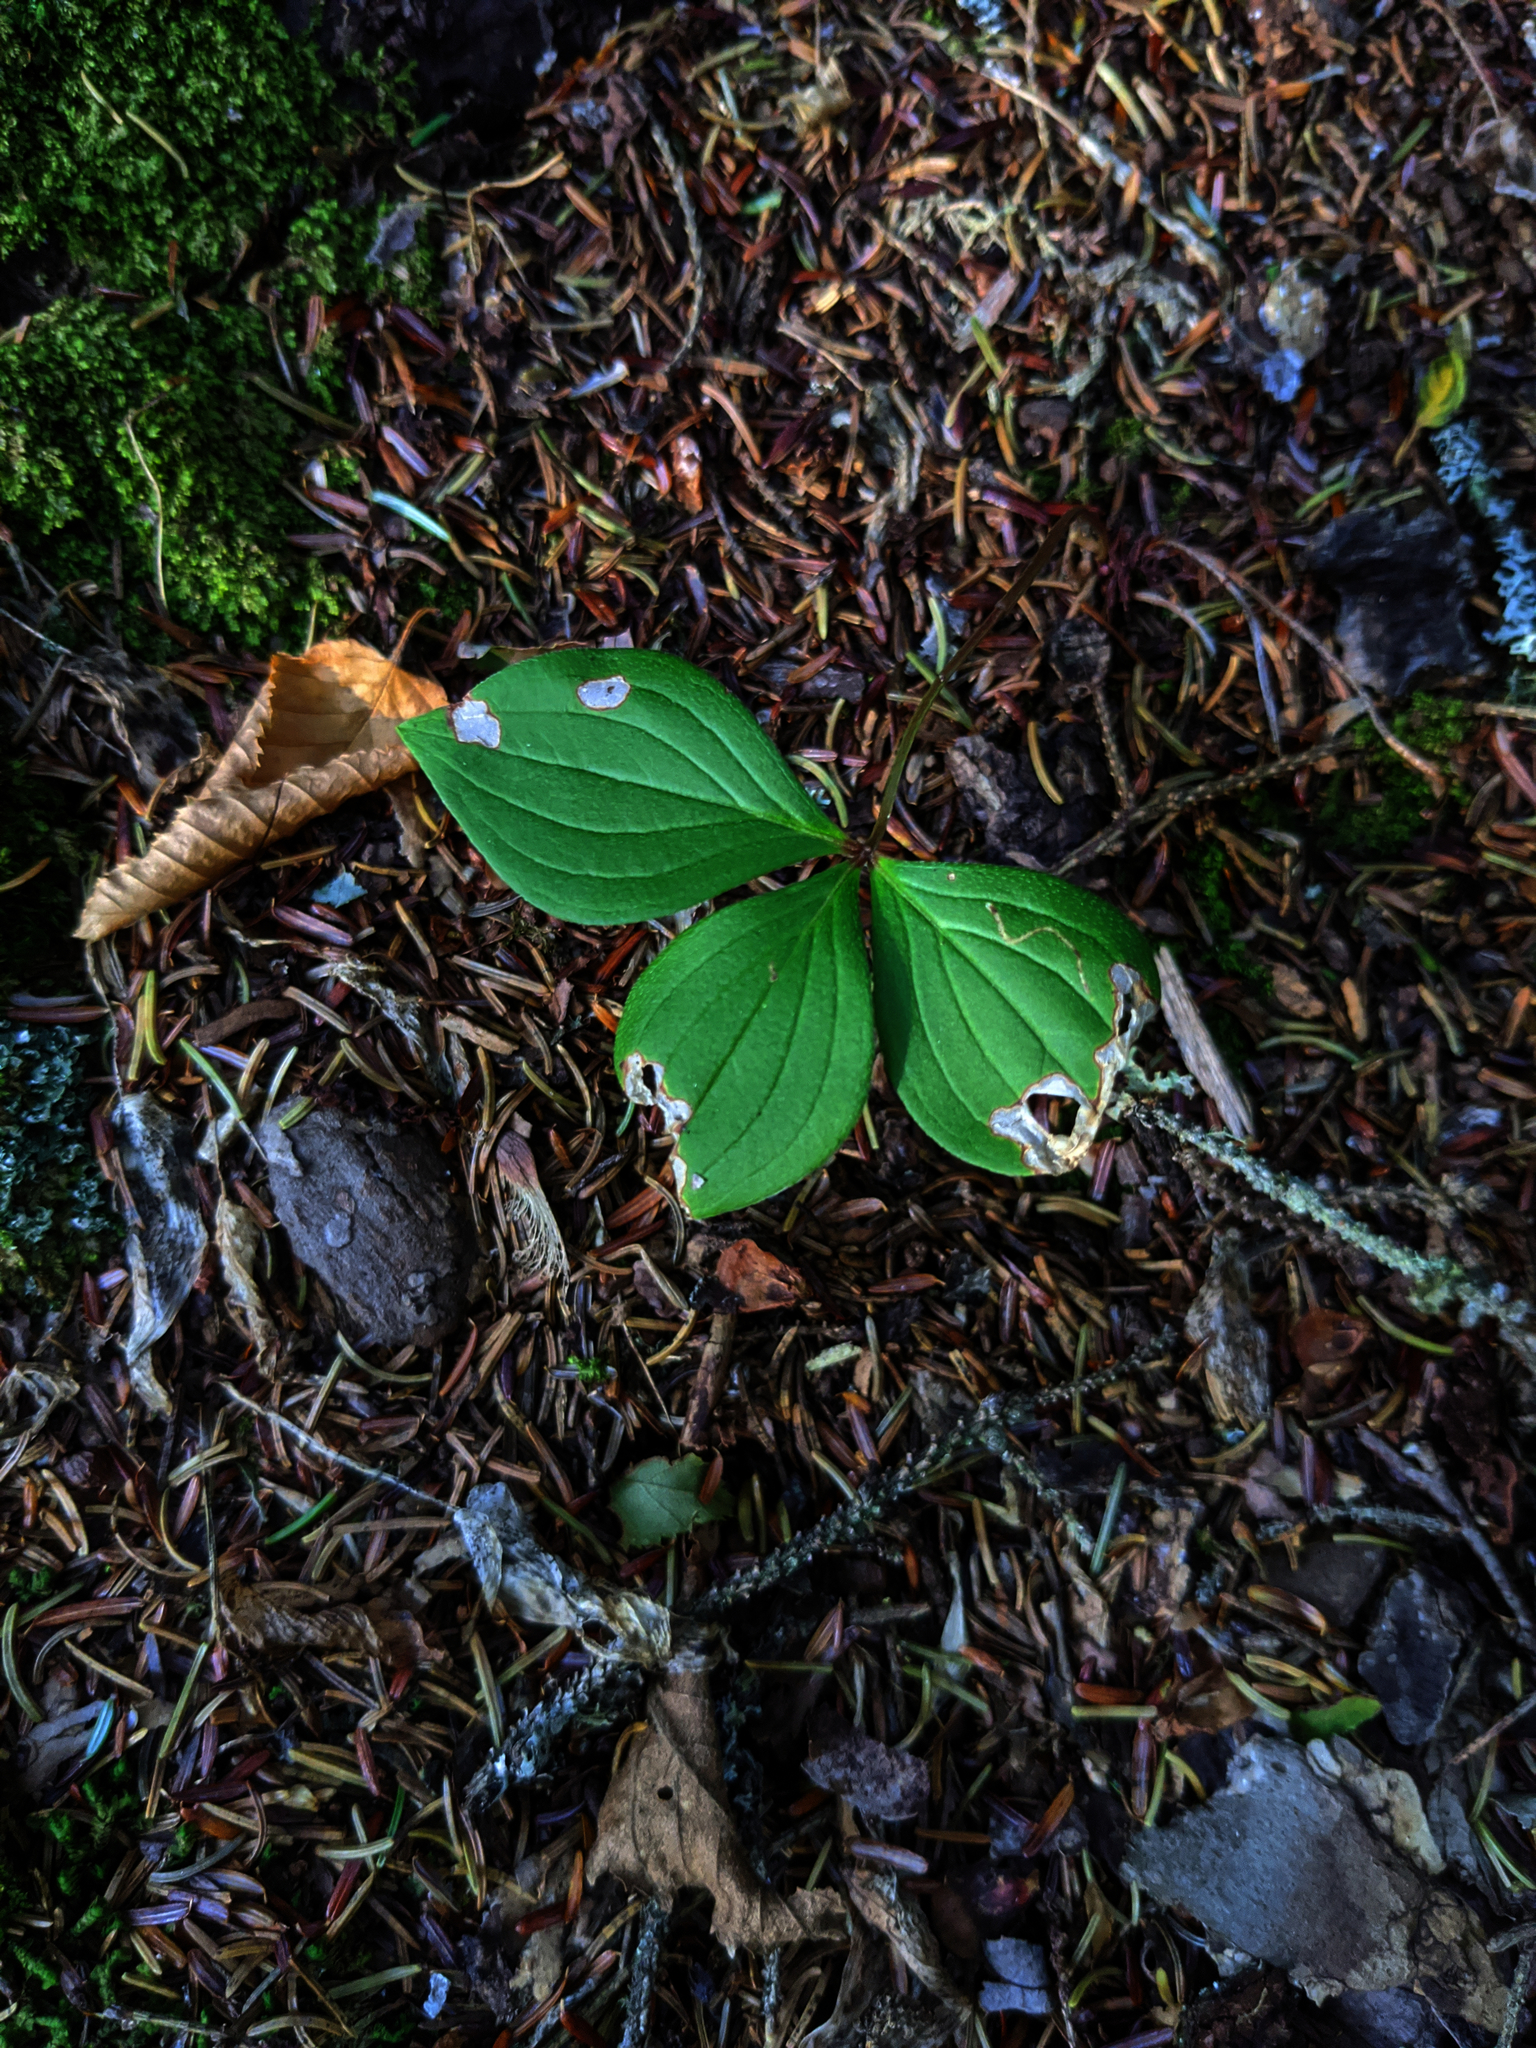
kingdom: Plantae
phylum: Tracheophyta
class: Magnoliopsida
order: Cornales
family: Cornaceae
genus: Cornus
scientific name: Cornus canadensis
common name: Creeping dogwood
